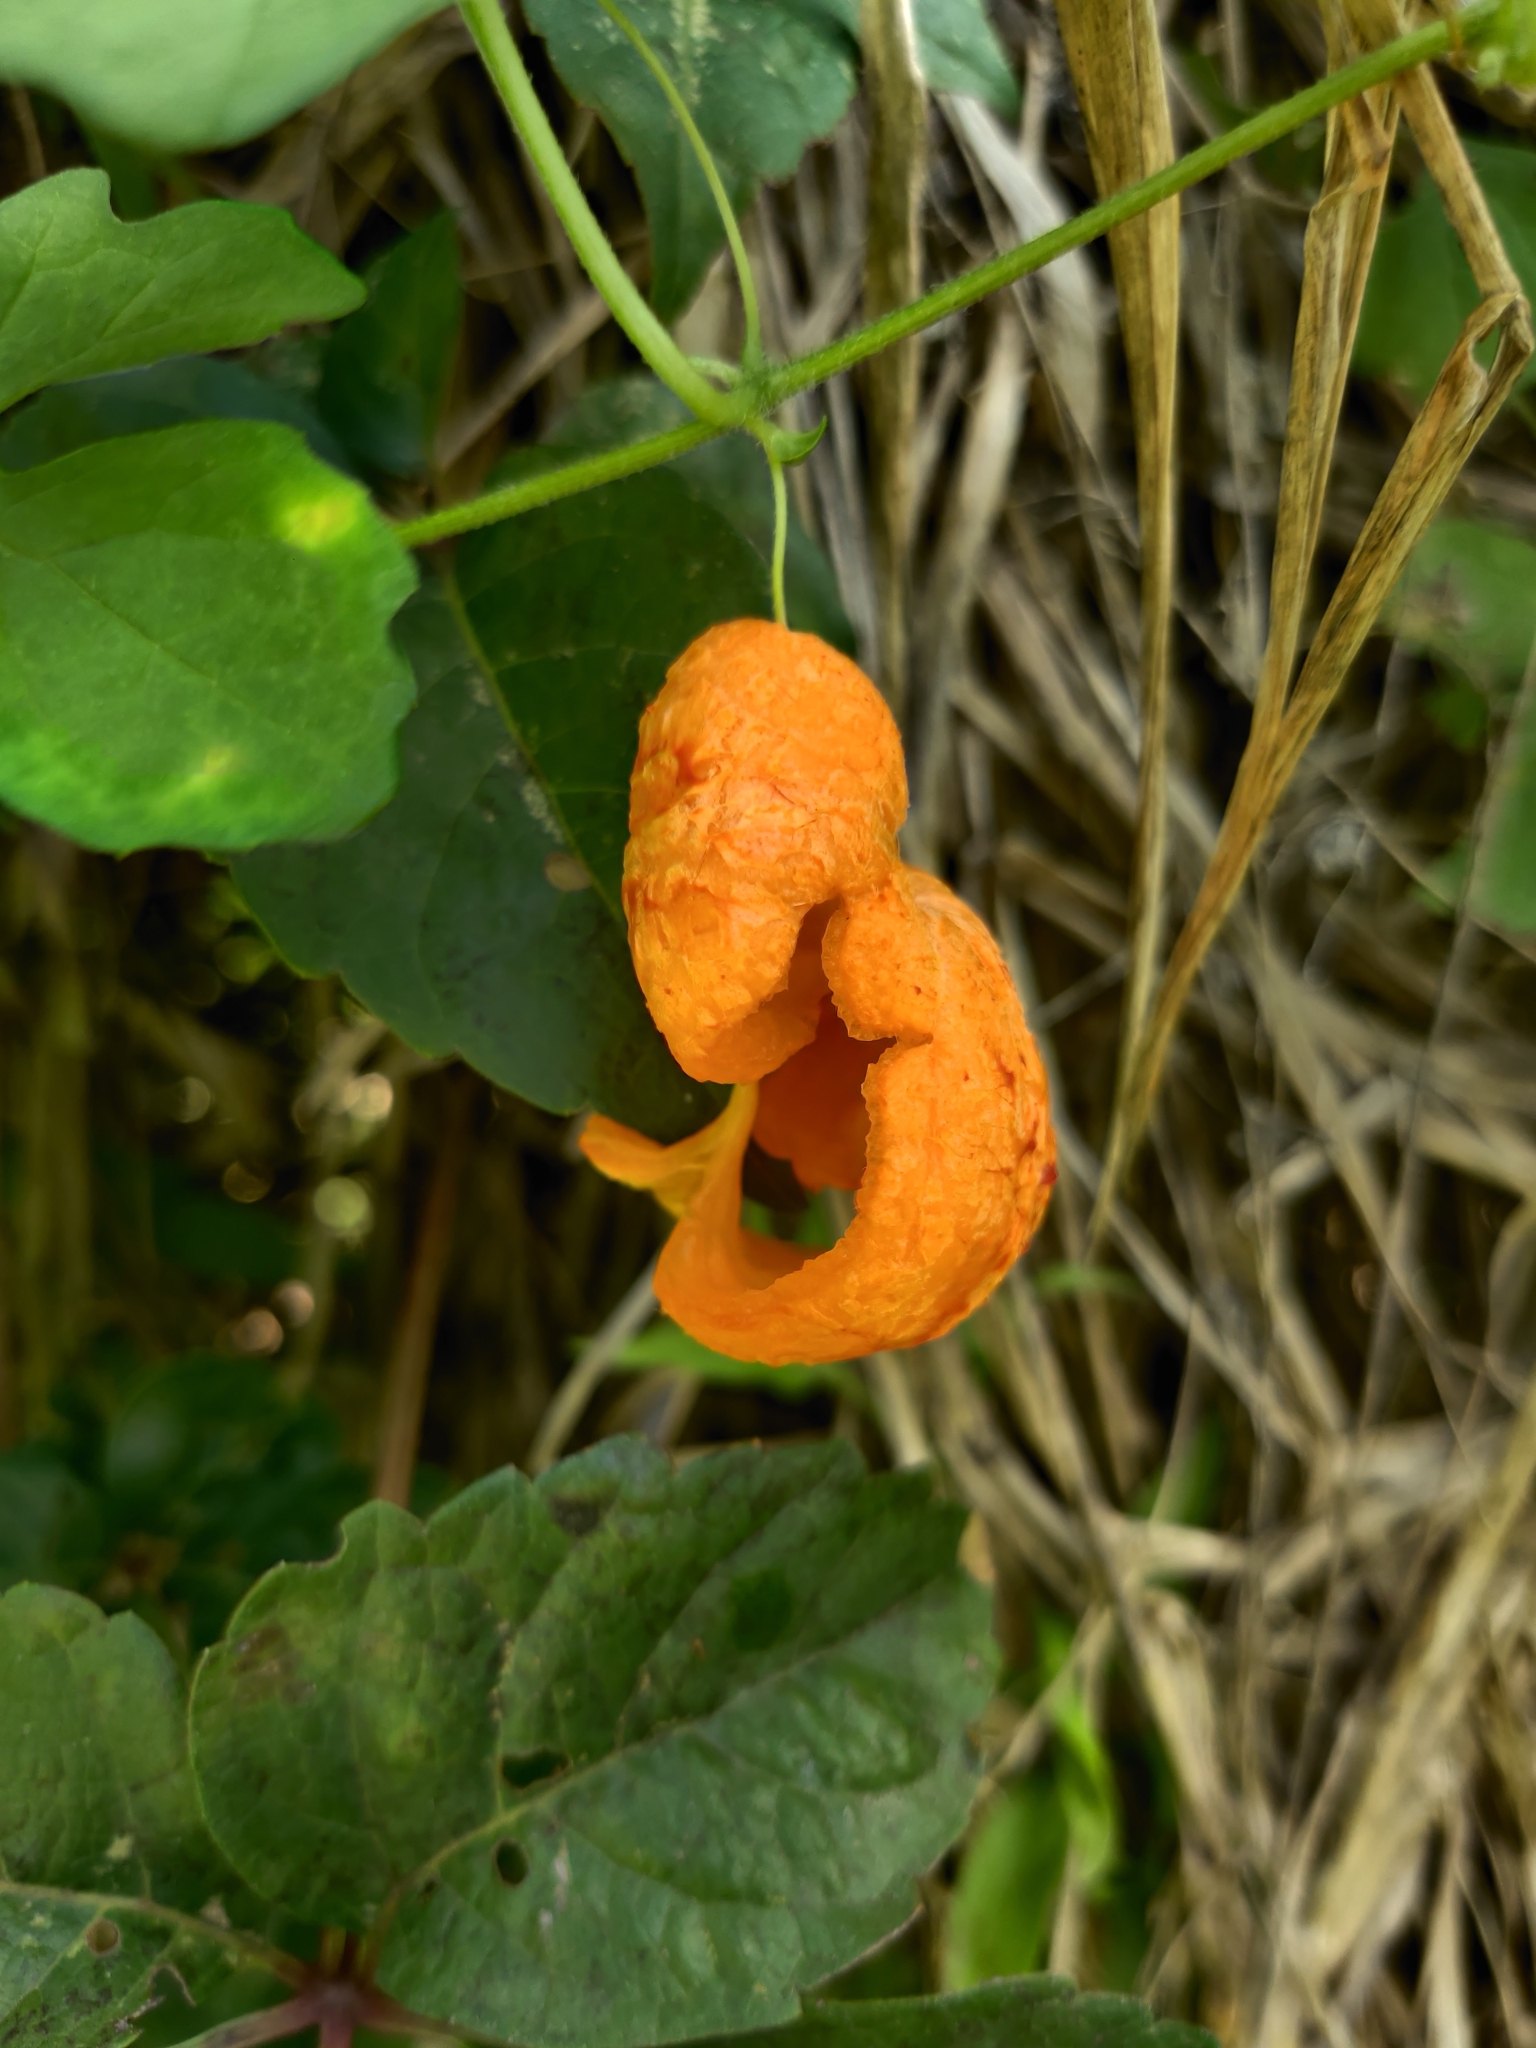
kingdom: Plantae
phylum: Tracheophyta
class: Magnoliopsida
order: Cucurbitales
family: Cucurbitaceae
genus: Momordica
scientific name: Momordica charantia
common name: Balsampear
